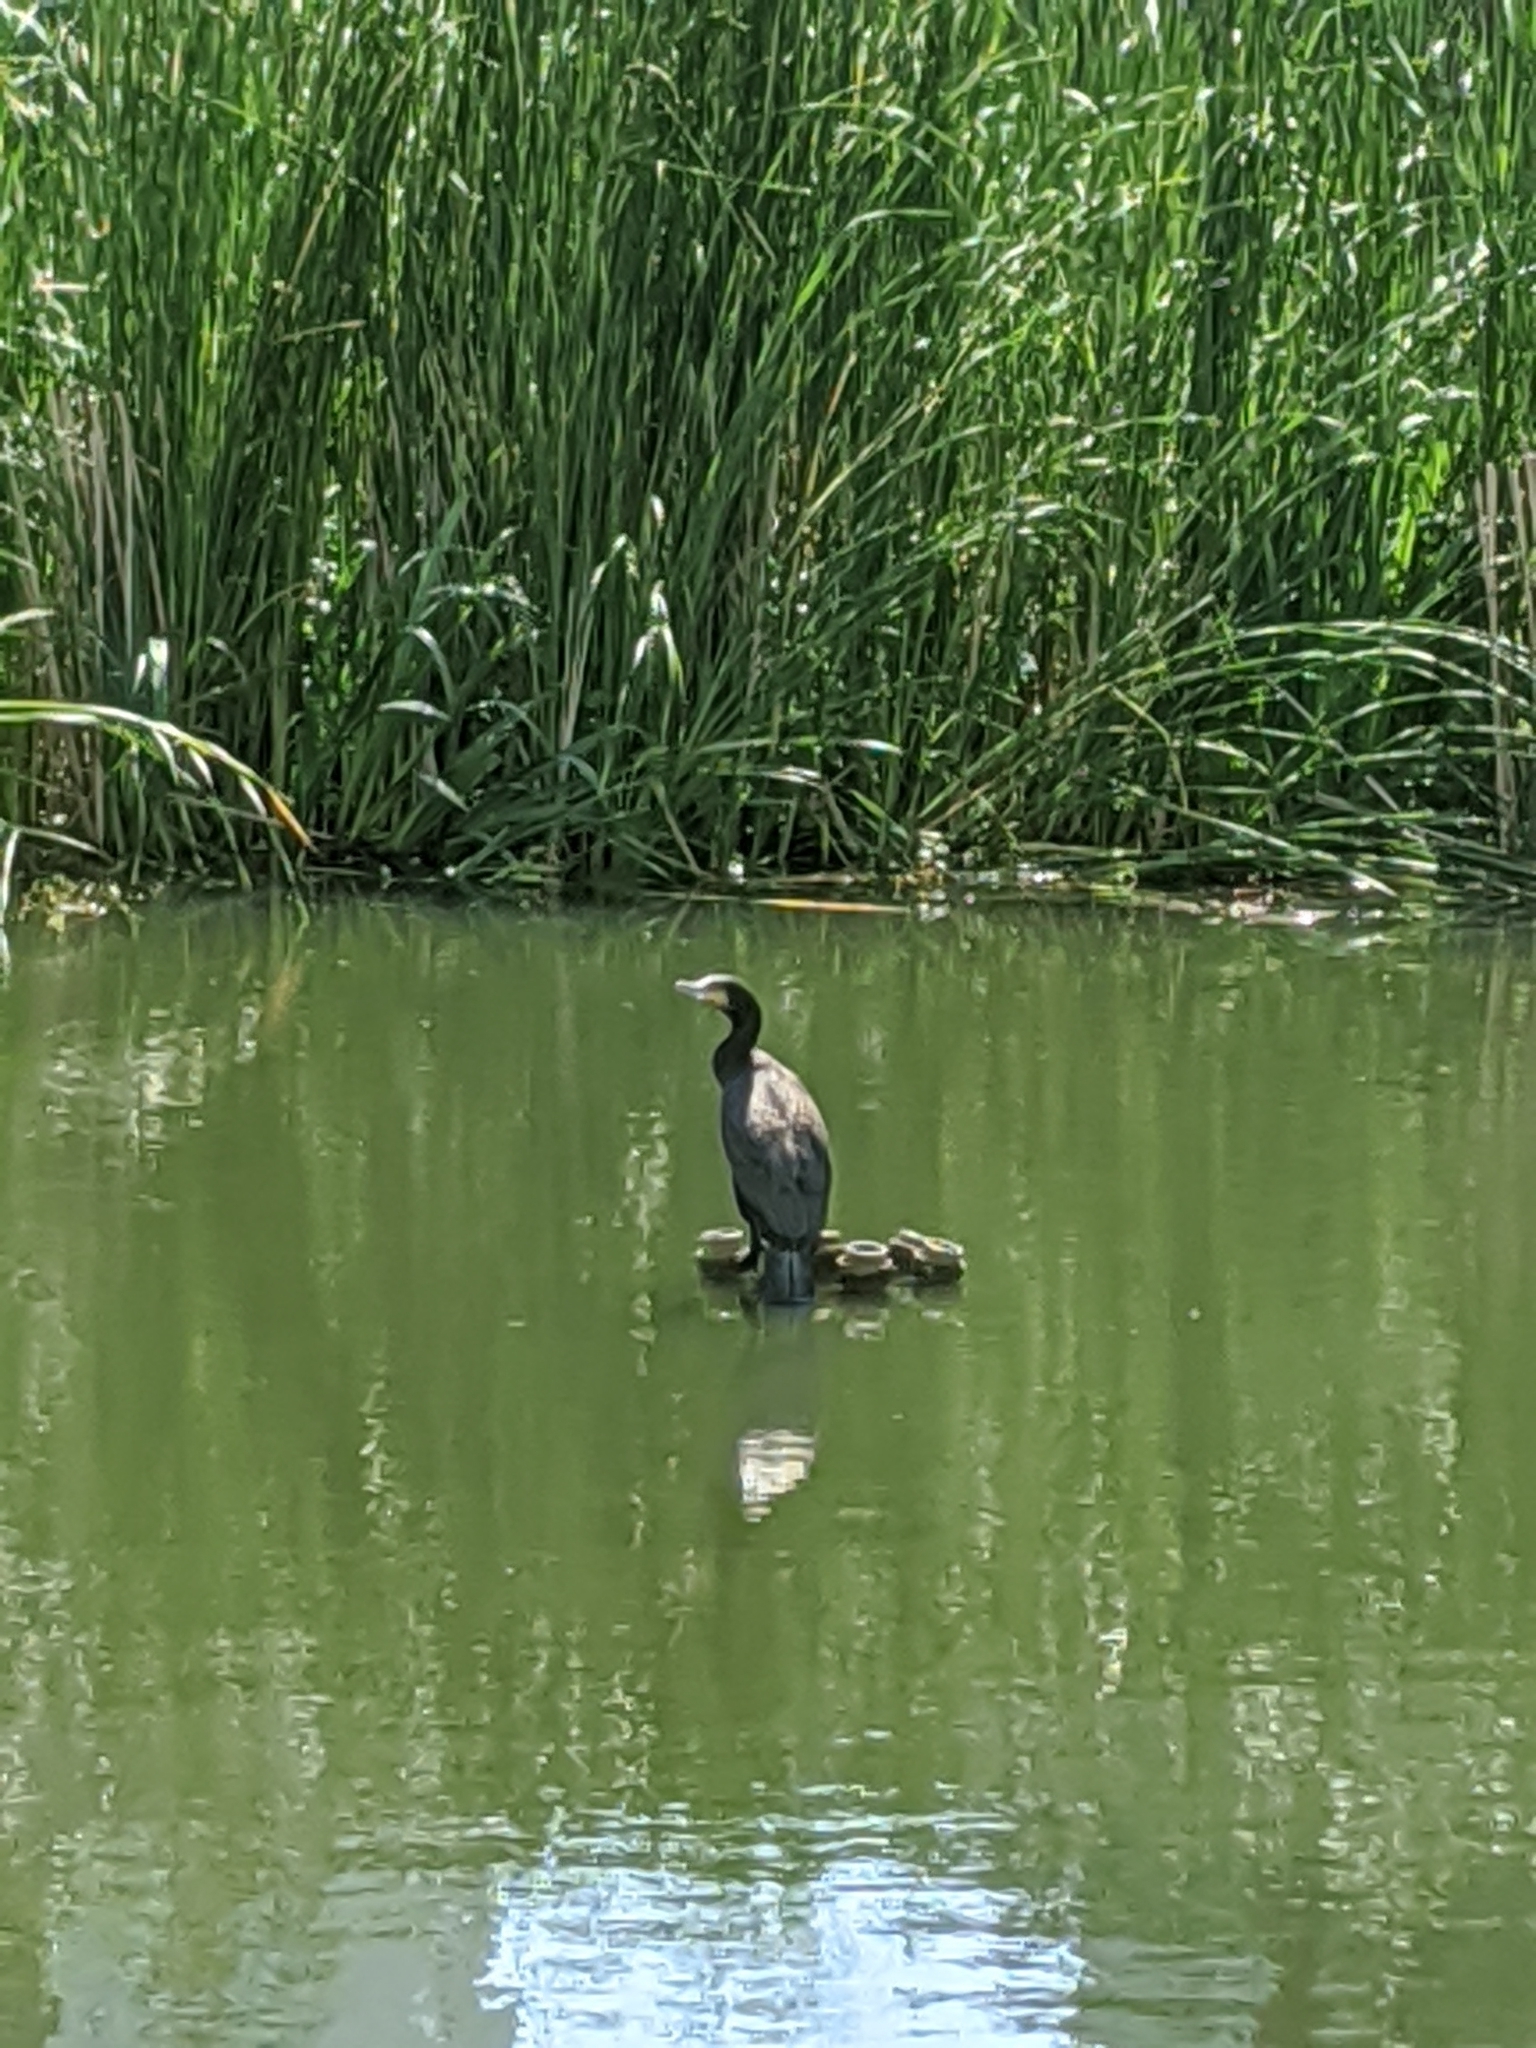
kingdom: Animalia
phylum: Chordata
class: Aves
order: Suliformes
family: Phalacrocoracidae
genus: Phalacrocorax
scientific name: Phalacrocorax carbo
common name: Great cormorant
